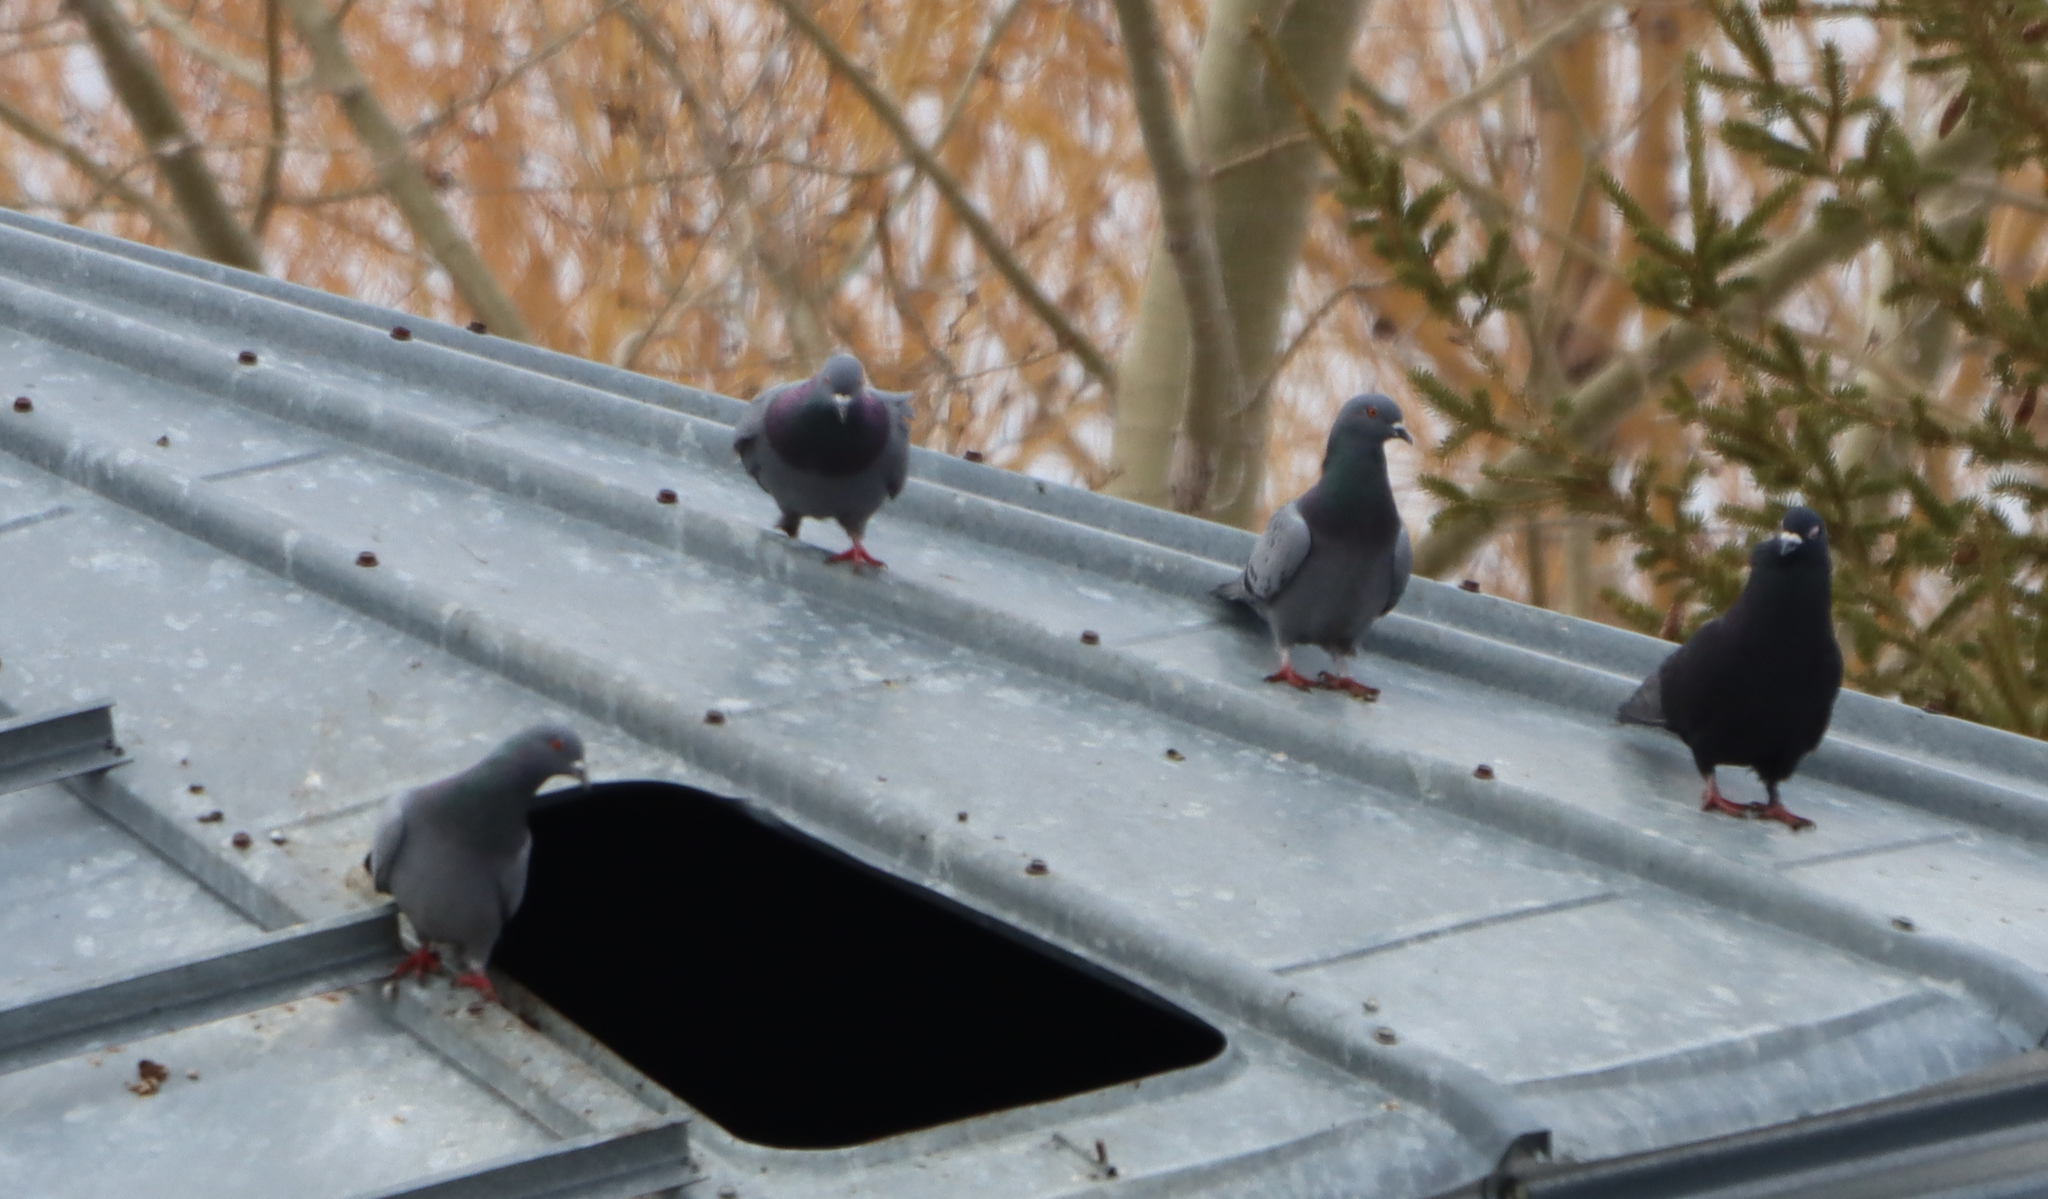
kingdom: Animalia
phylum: Chordata
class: Aves
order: Columbiformes
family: Columbidae
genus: Columba
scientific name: Columba livia
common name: Rock pigeon
